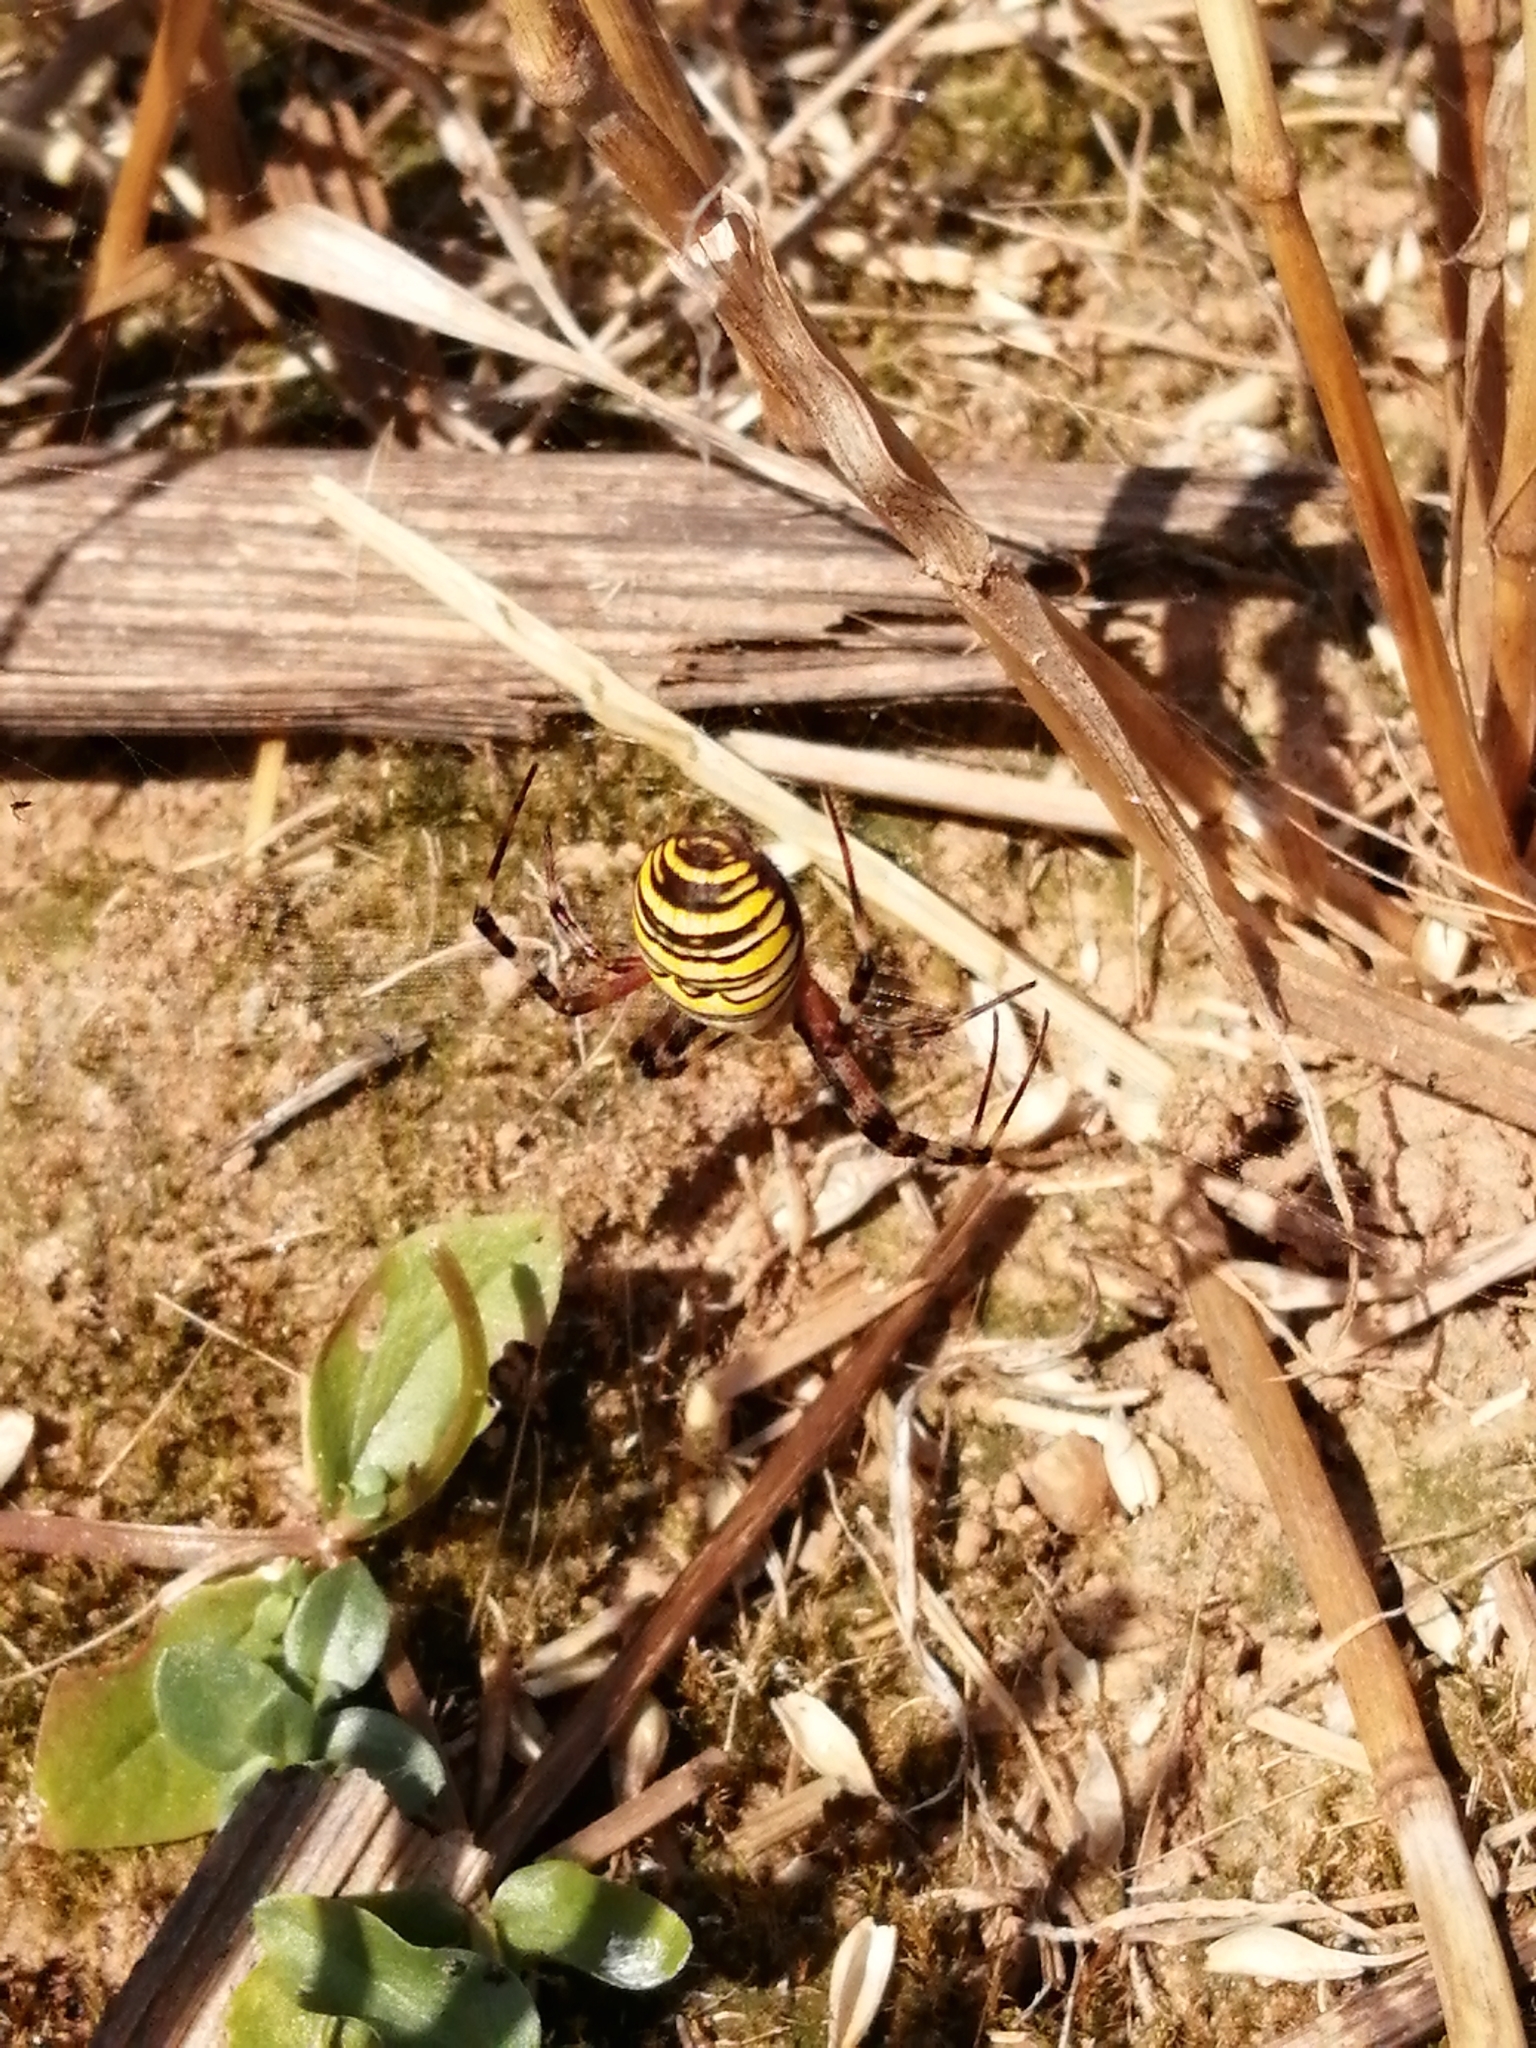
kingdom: Animalia
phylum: Arthropoda
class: Arachnida
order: Araneae
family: Araneidae
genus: Argiope
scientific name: Argiope bruennichi
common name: Wasp spider
